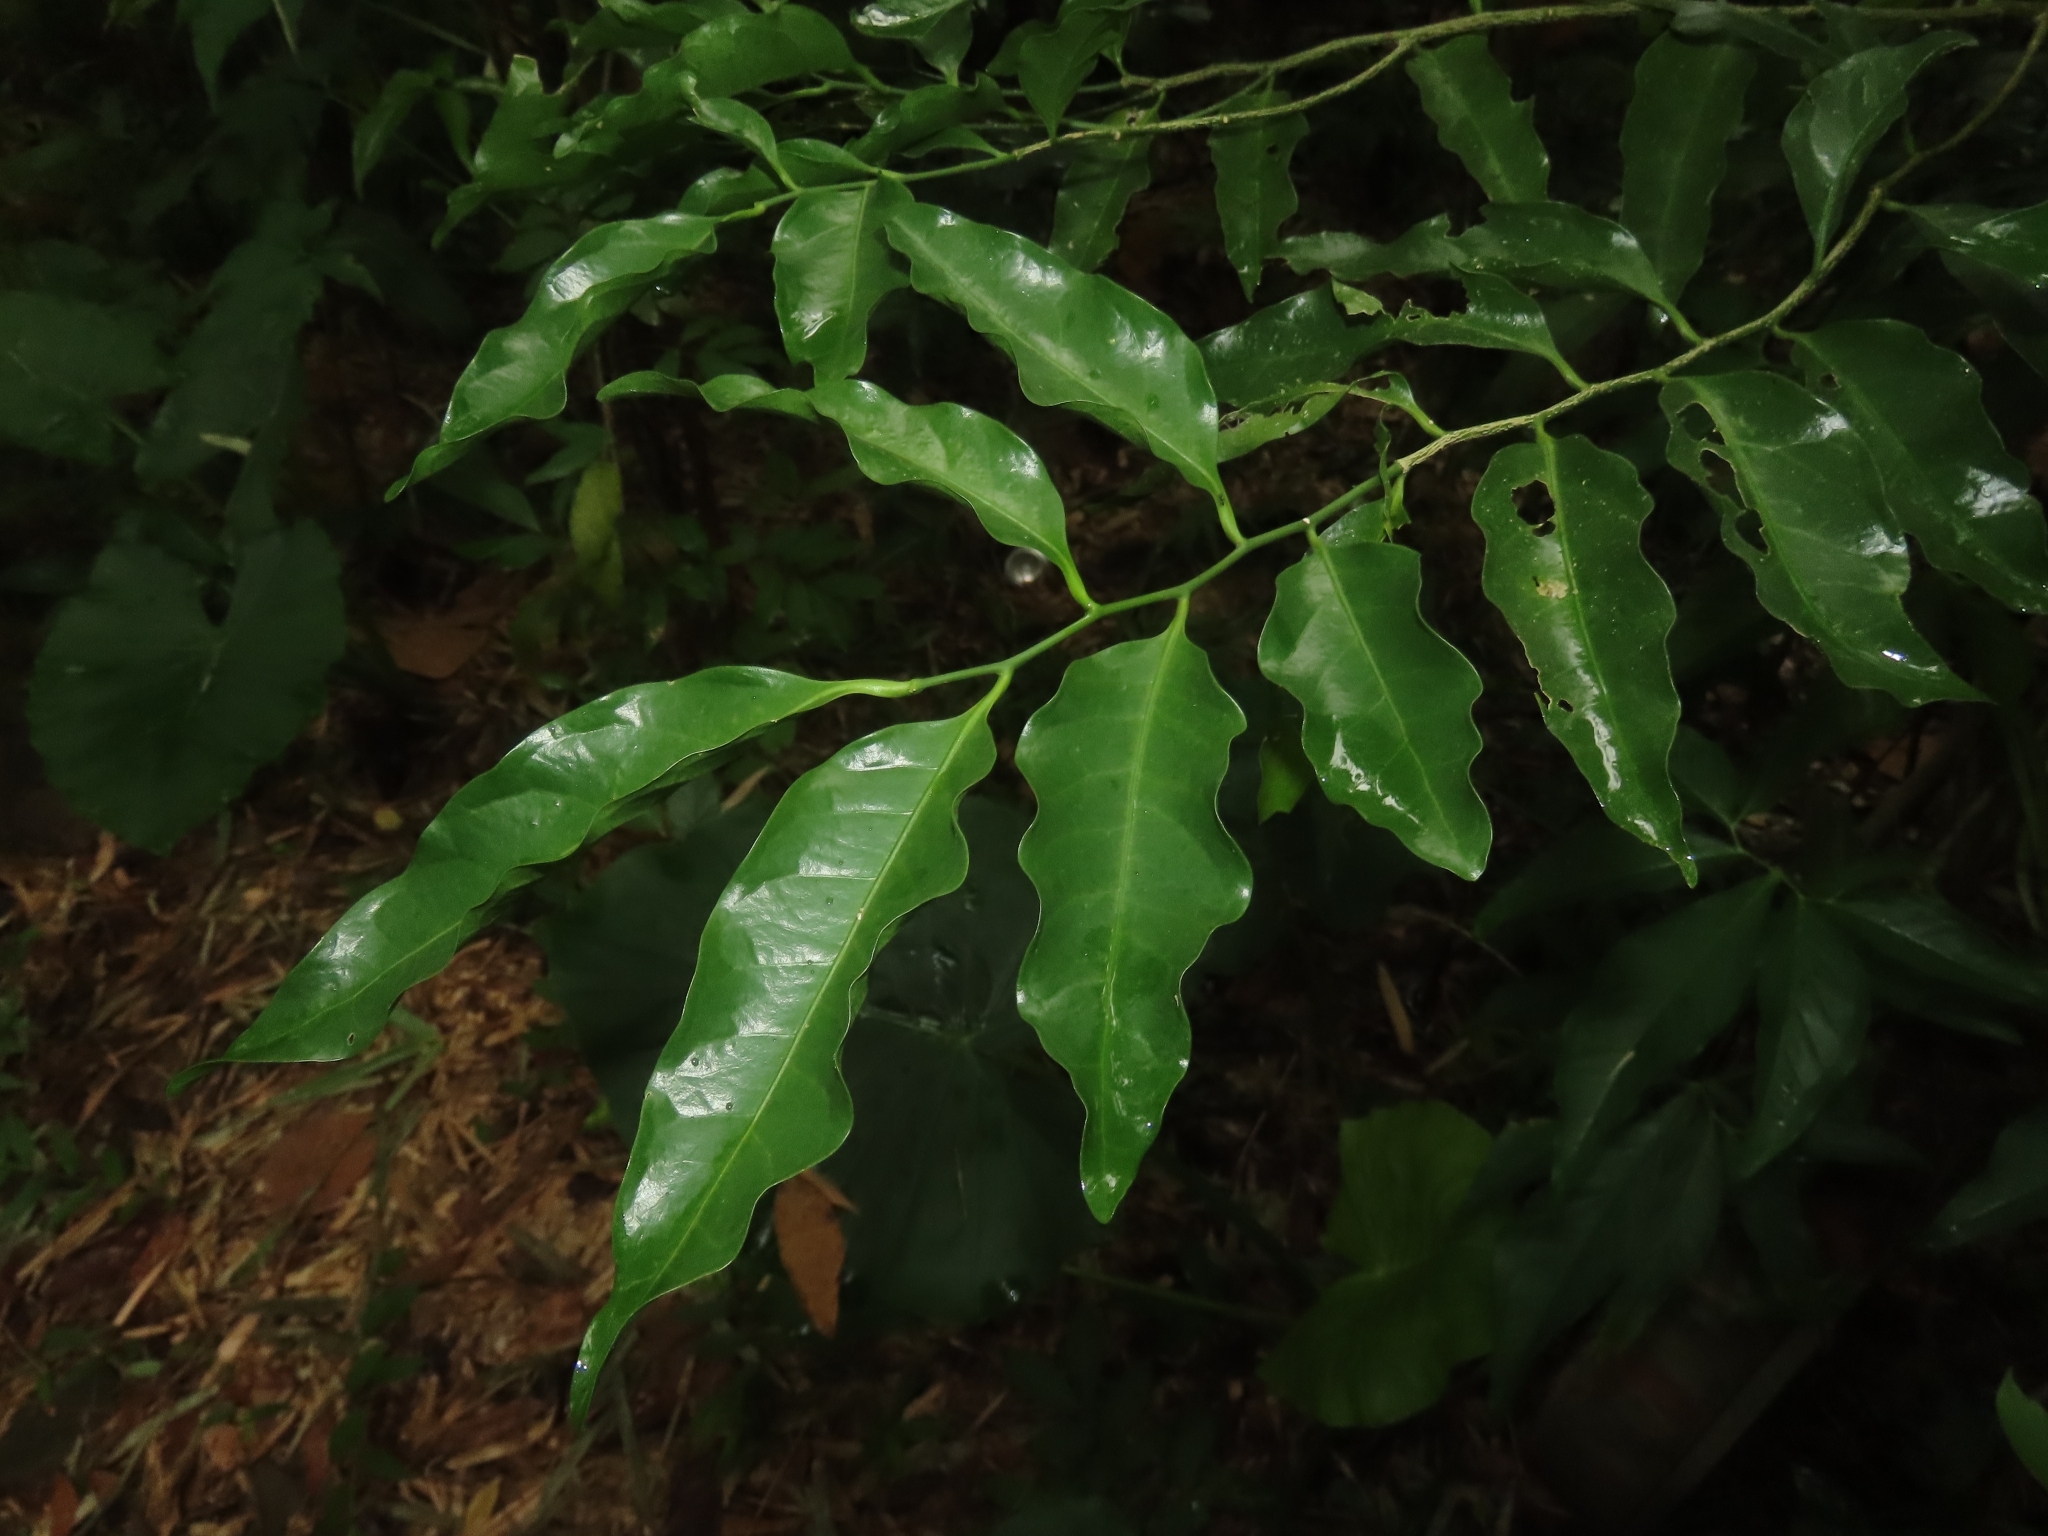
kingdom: Plantae
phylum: Tracheophyta
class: Magnoliopsida
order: Santalales
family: Opiliaceae
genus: Champereia
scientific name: Champereia manillana
